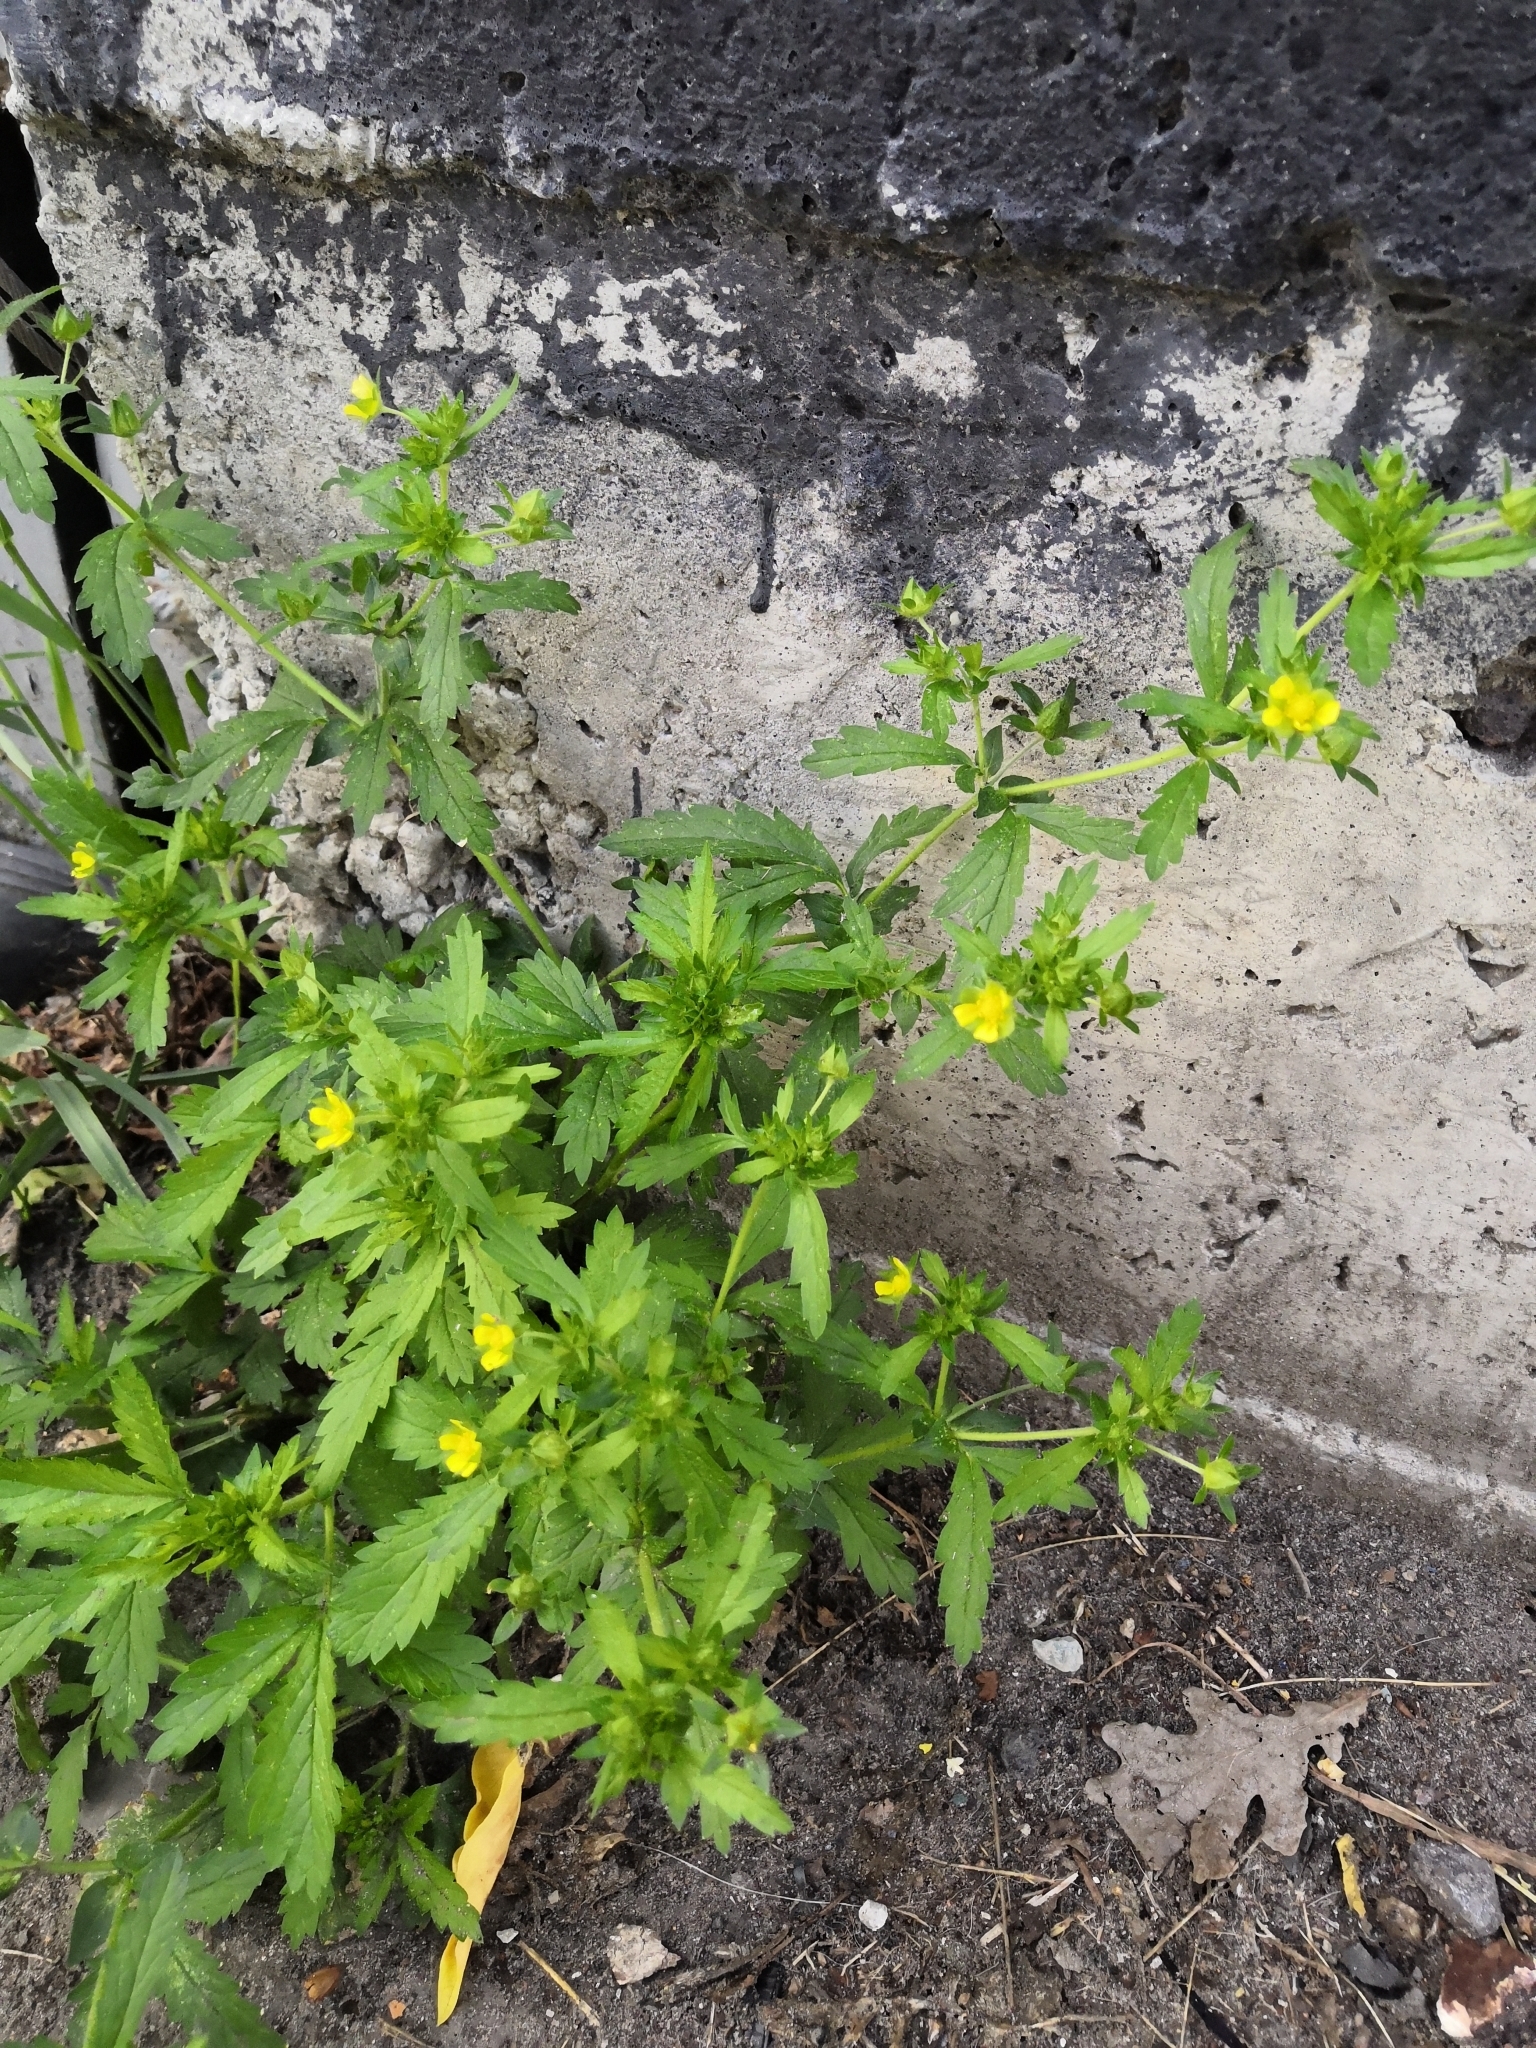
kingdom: Plantae
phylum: Tracheophyta
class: Magnoliopsida
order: Rosales
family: Rosaceae
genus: Potentilla
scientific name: Potentilla norvegica
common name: Ternate-leaved cinquefoil
